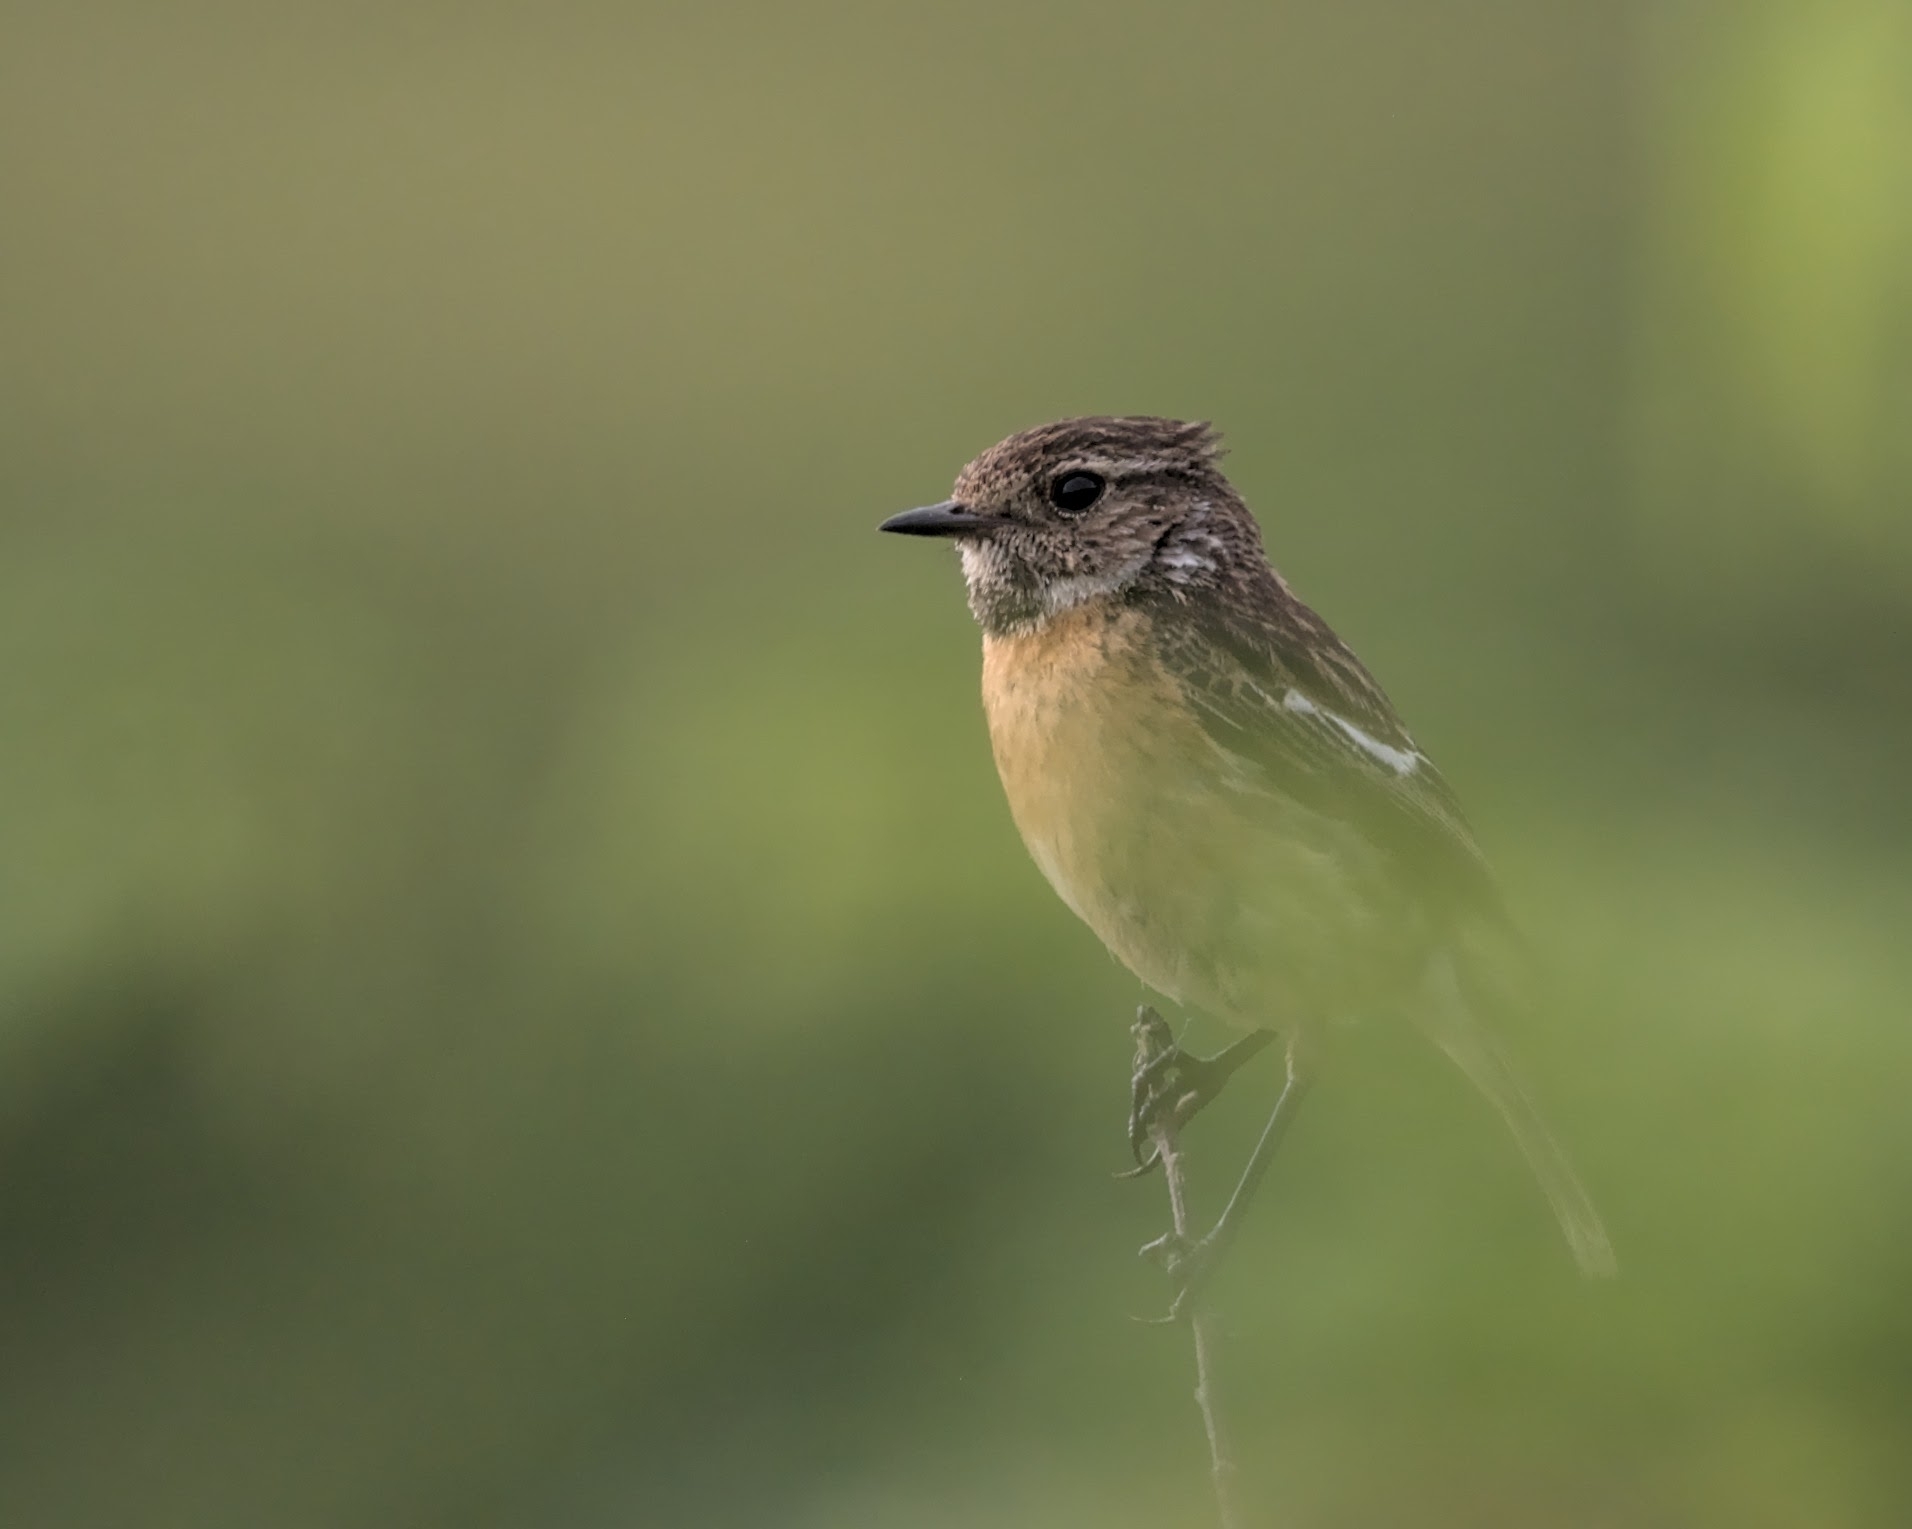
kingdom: Animalia
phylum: Chordata
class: Aves
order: Passeriformes
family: Muscicapidae
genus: Saxicola
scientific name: Saxicola rubicola
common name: European stonechat
